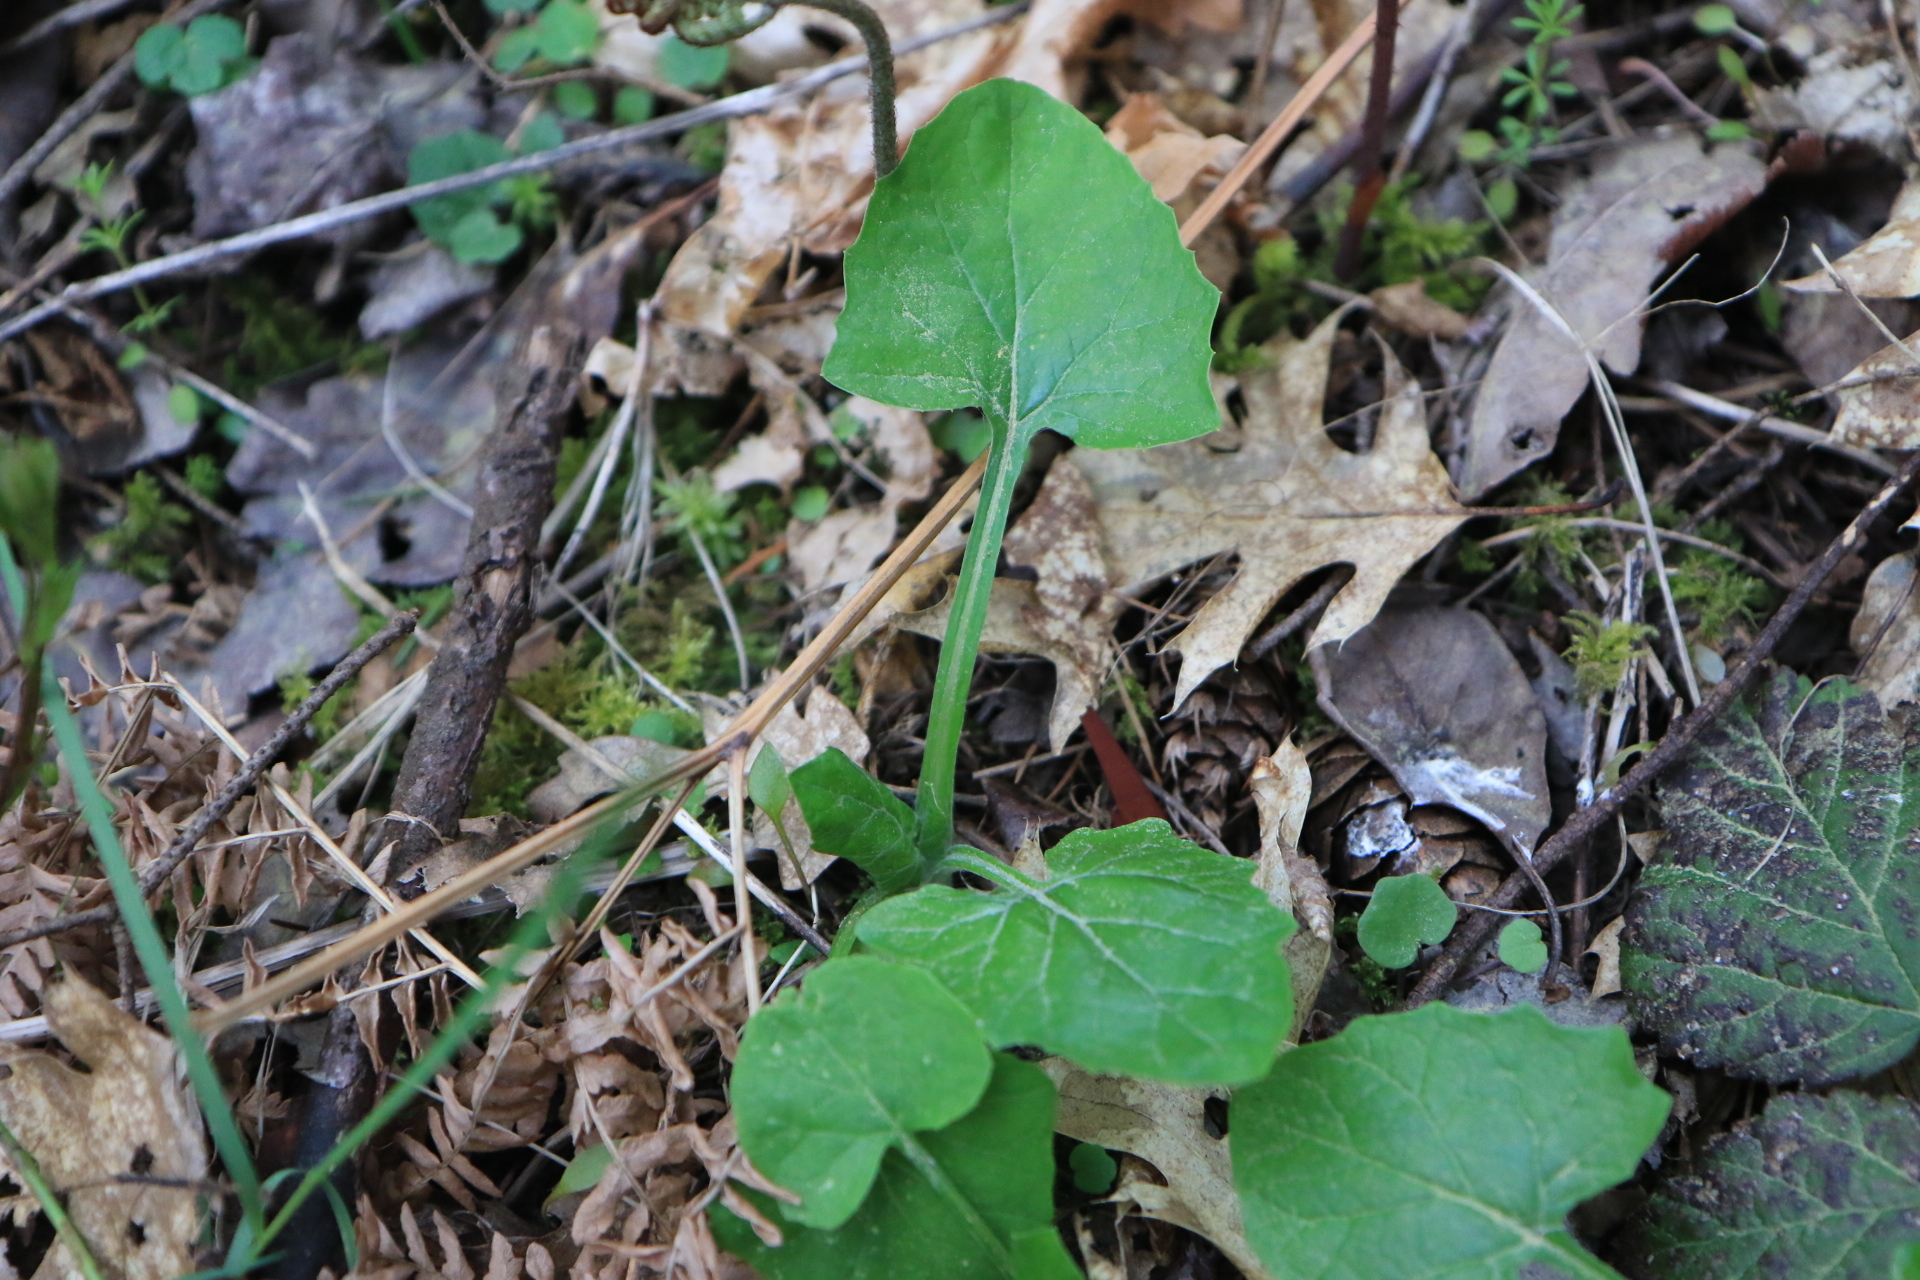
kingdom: Plantae
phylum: Tracheophyta
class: Magnoliopsida
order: Asterales
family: Asteraceae
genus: Adenocaulon
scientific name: Adenocaulon bicolor
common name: Trailplant
